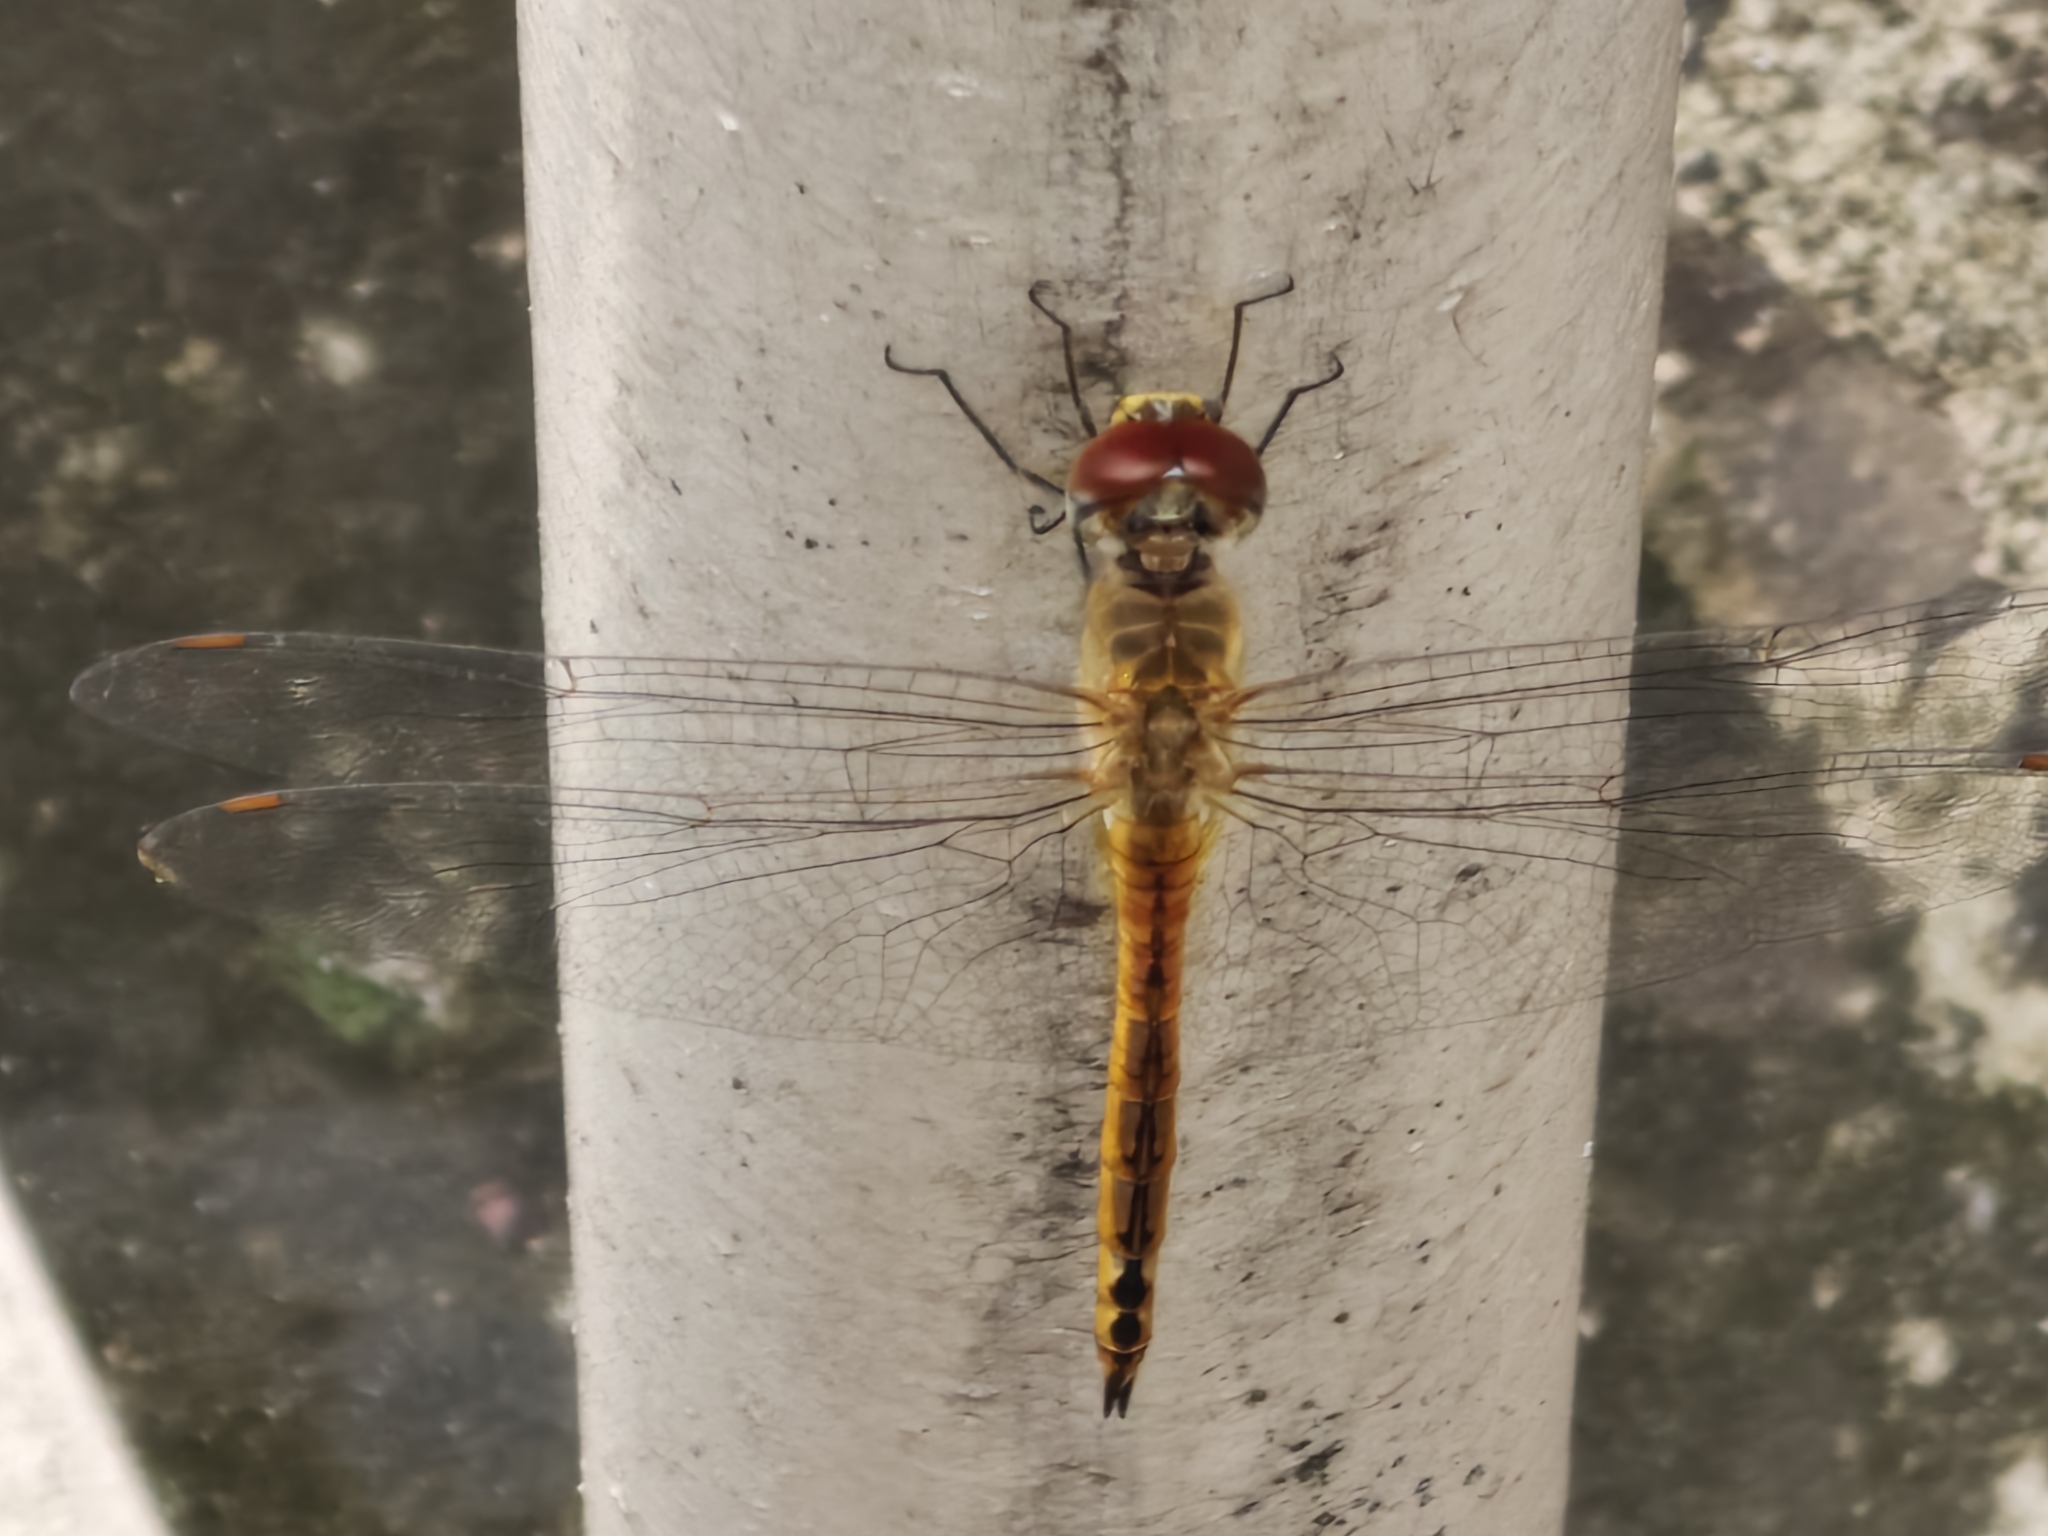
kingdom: Animalia
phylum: Arthropoda
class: Insecta
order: Odonata
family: Libellulidae
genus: Pantala
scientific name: Pantala flavescens
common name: Wandering glider
